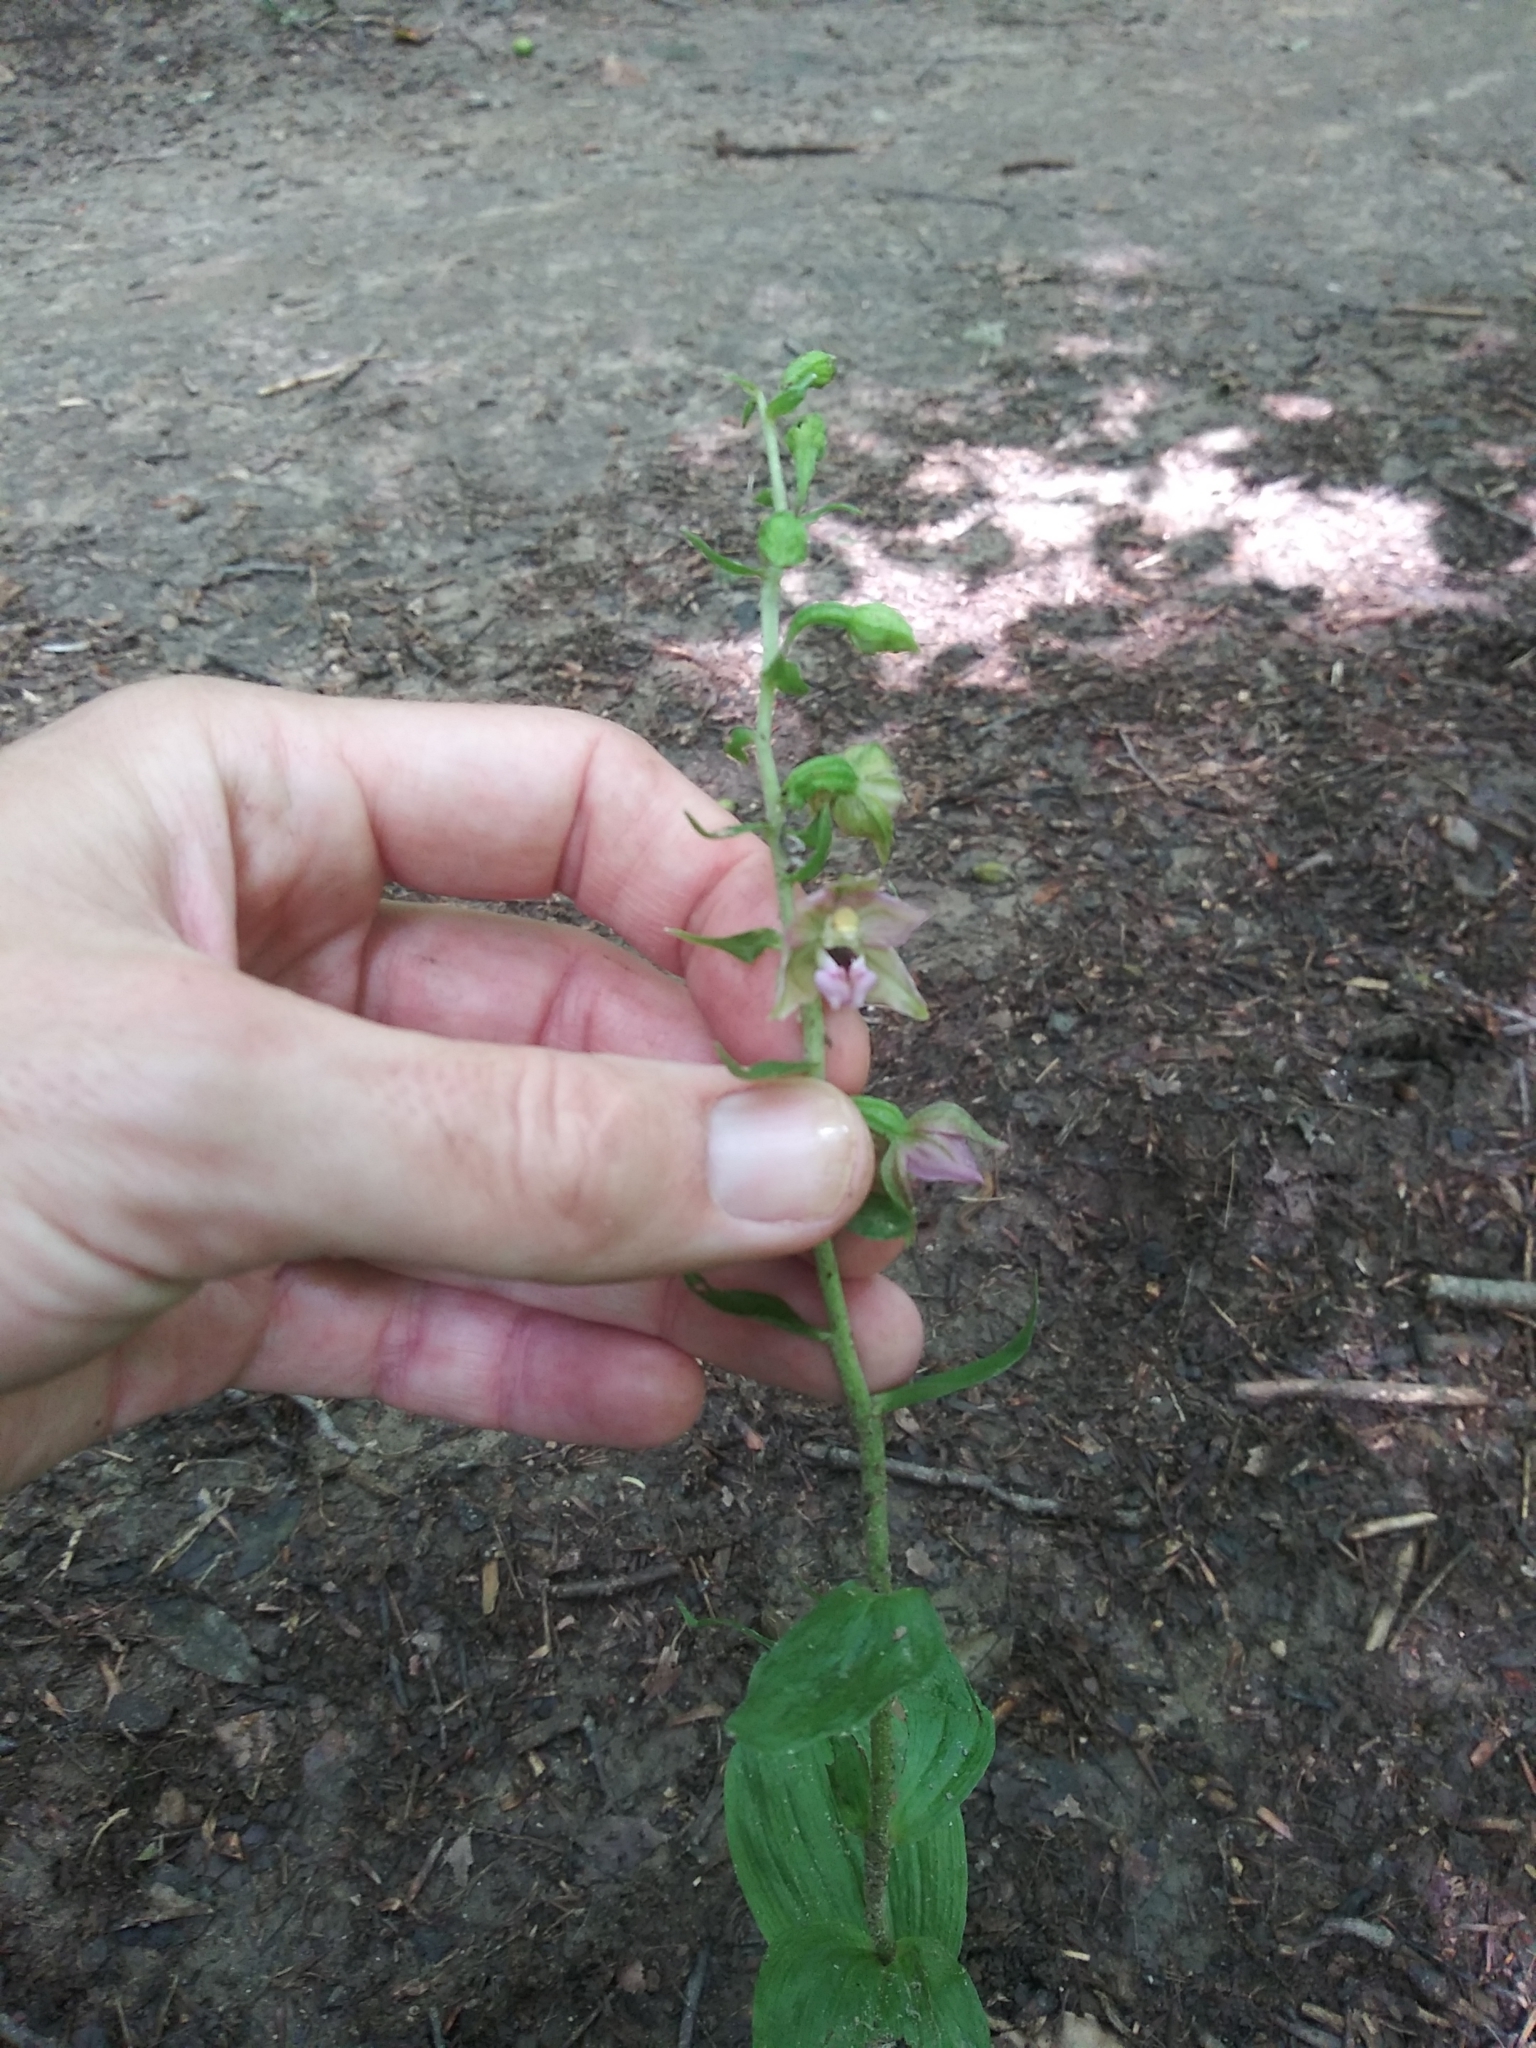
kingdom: Plantae
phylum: Tracheophyta
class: Liliopsida
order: Asparagales
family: Orchidaceae
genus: Epipactis
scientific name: Epipactis helleborine
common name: Broad-leaved helleborine
